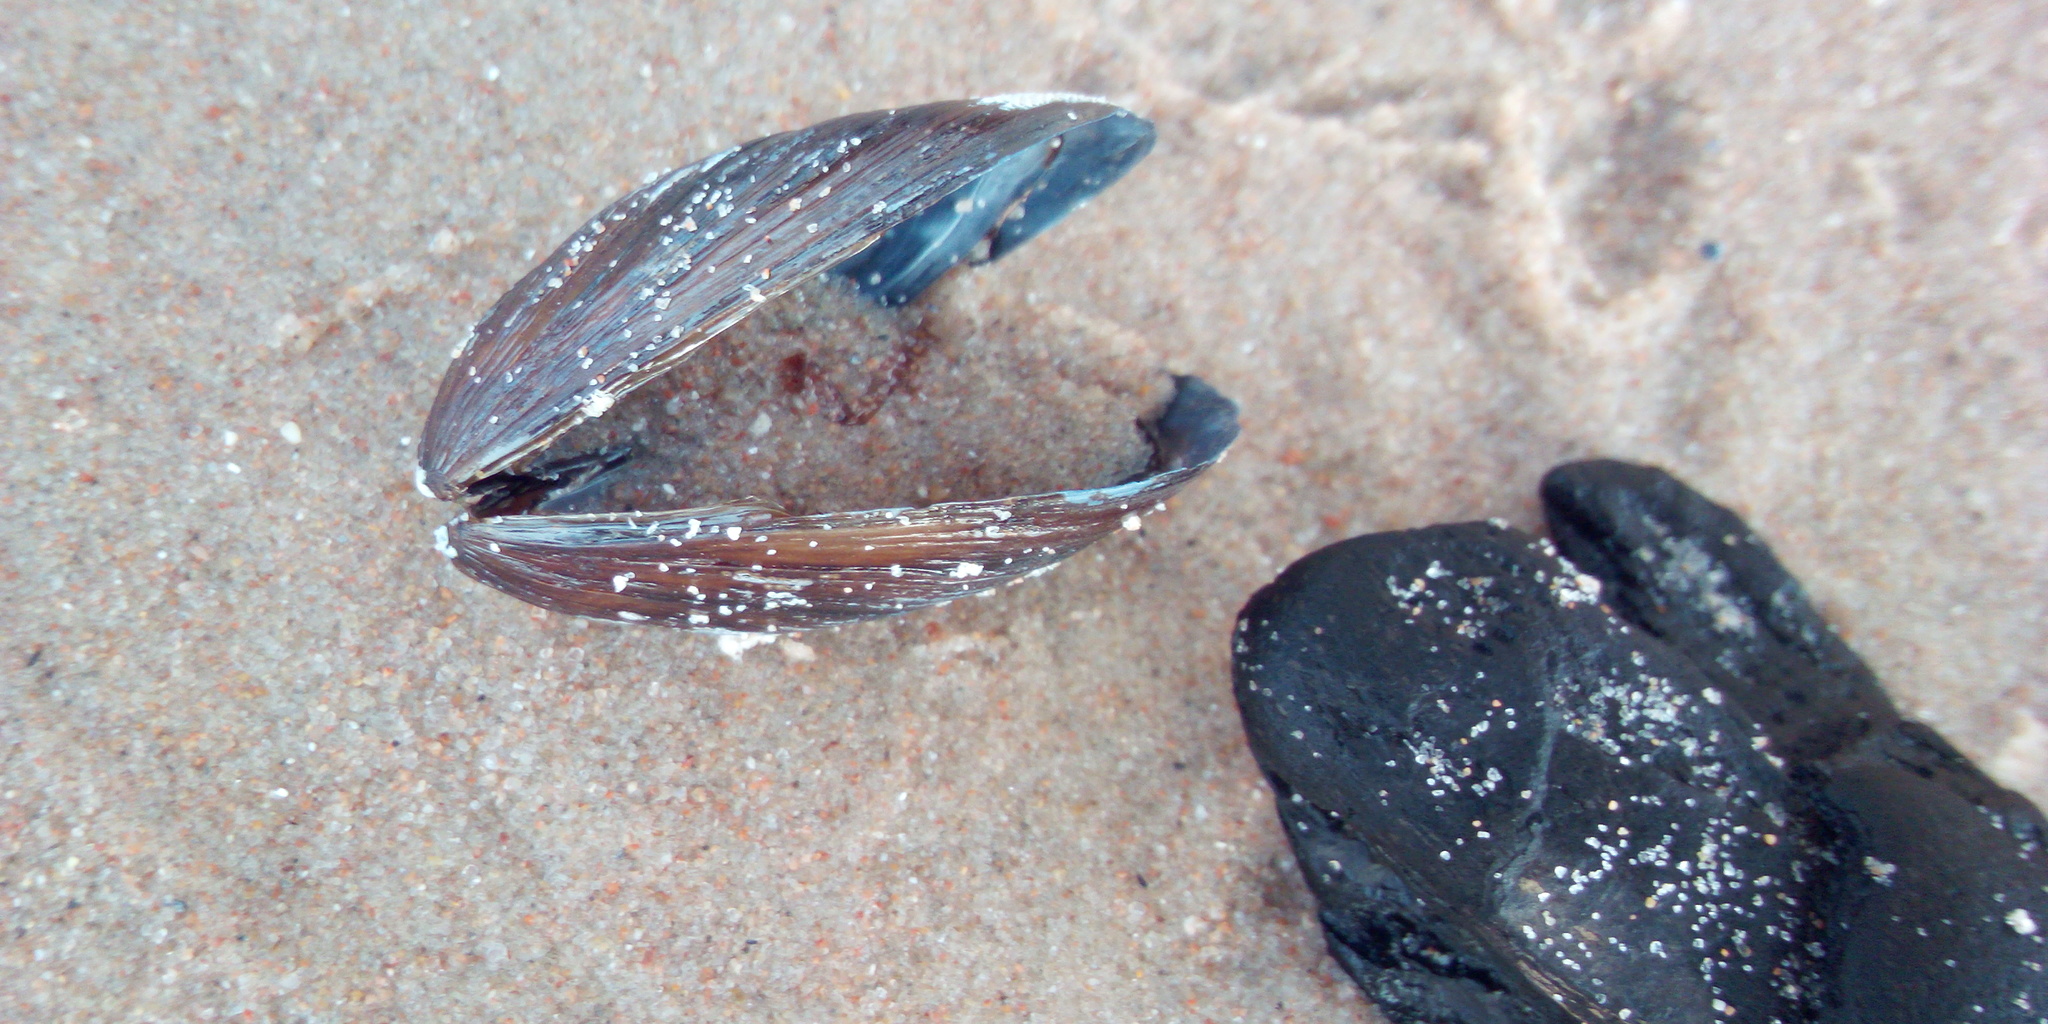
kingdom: Animalia
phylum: Mollusca
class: Bivalvia
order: Mytilida
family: Mytilidae
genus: Mytilus
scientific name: Mytilus
